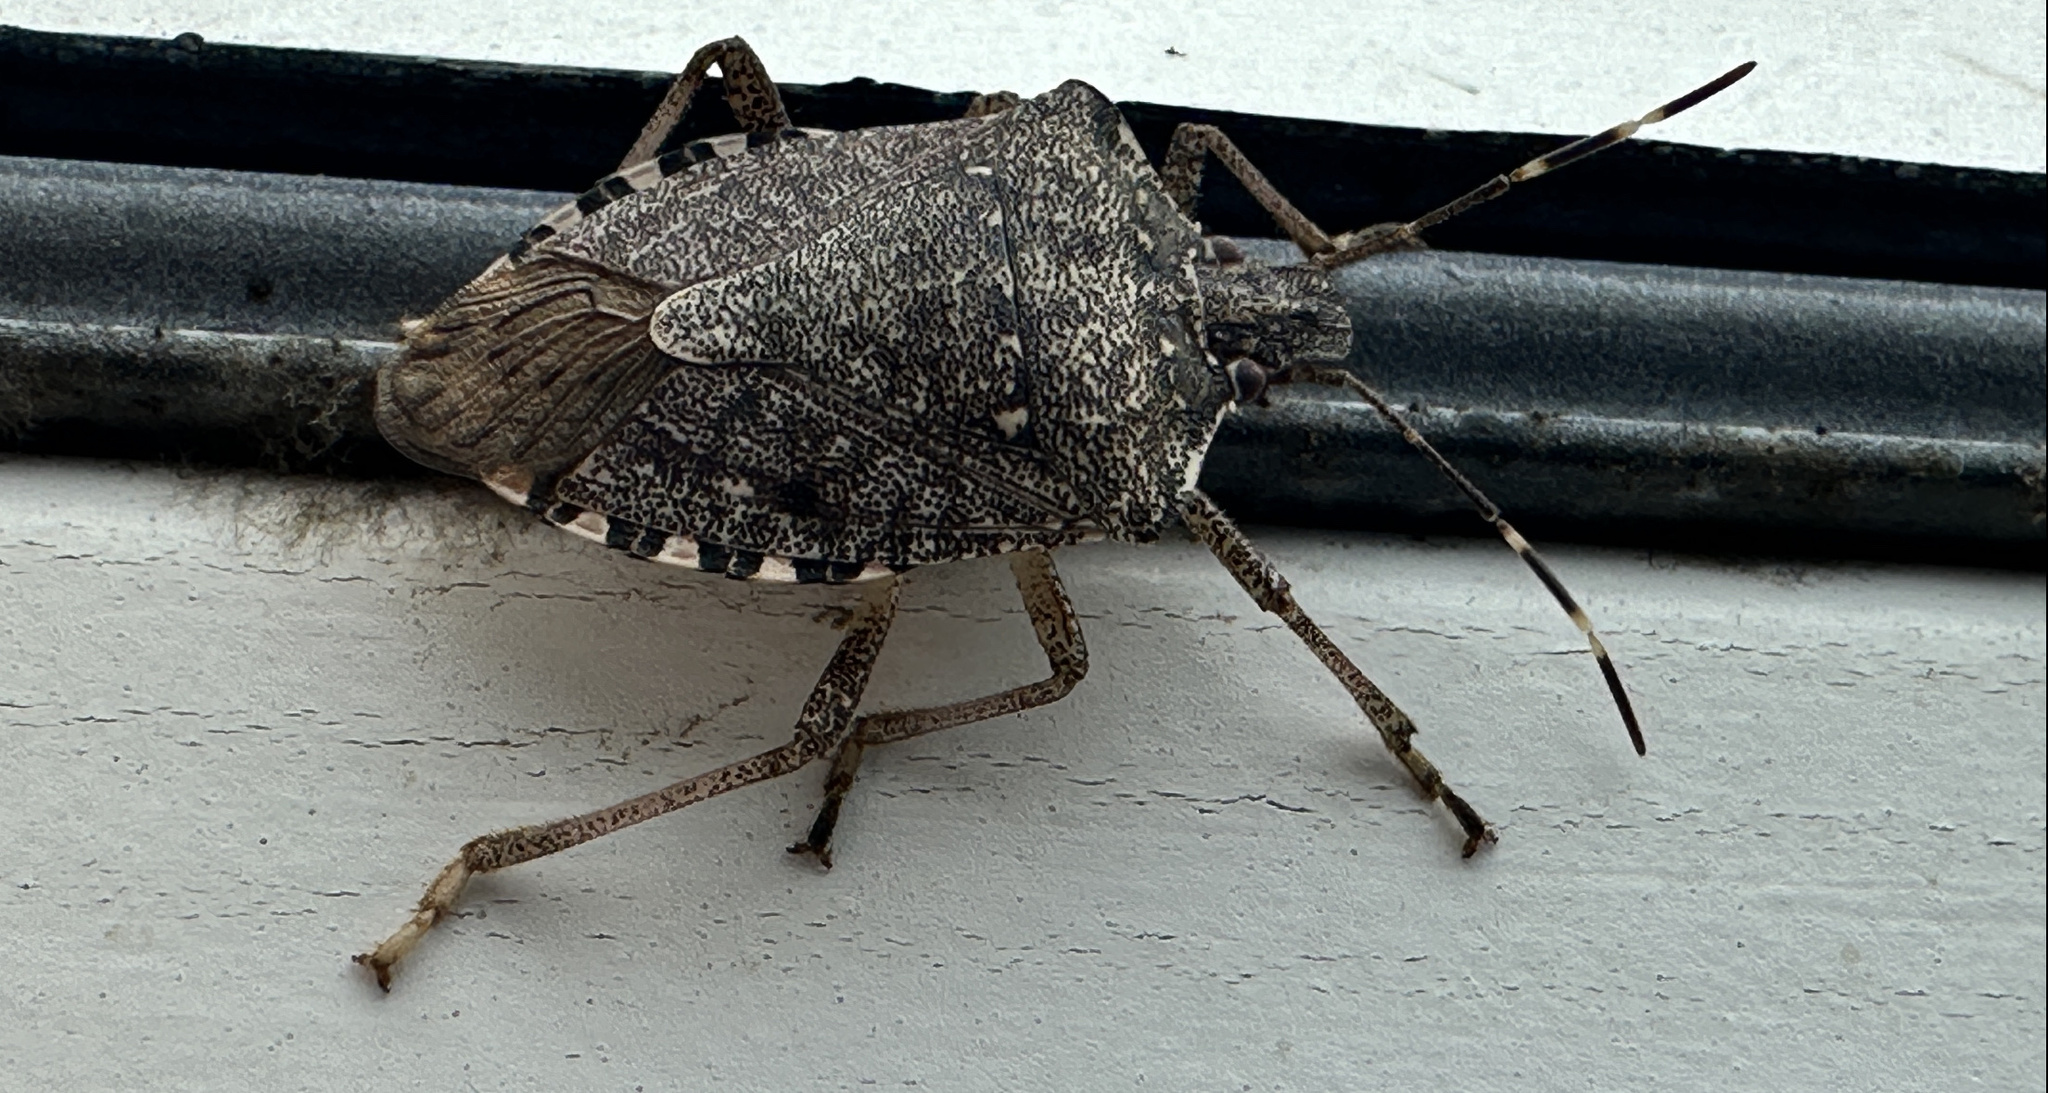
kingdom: Animalia
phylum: Arthropoda
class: Insecta
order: Hemiptera
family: Pentatomidae
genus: Halyomorpha
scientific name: Halyomorpha halys
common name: Brown marmorated stink bug
